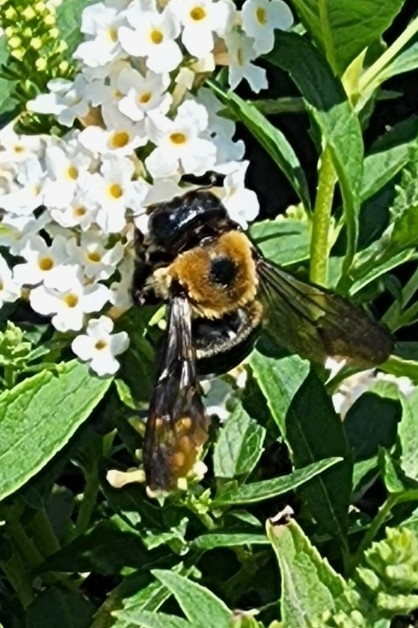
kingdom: Animalia
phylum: Arthropoda
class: Insecta
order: Hymenoptera
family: Apidae
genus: Xylocopa
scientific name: Xylocopa virginica
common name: Carpenter bee
